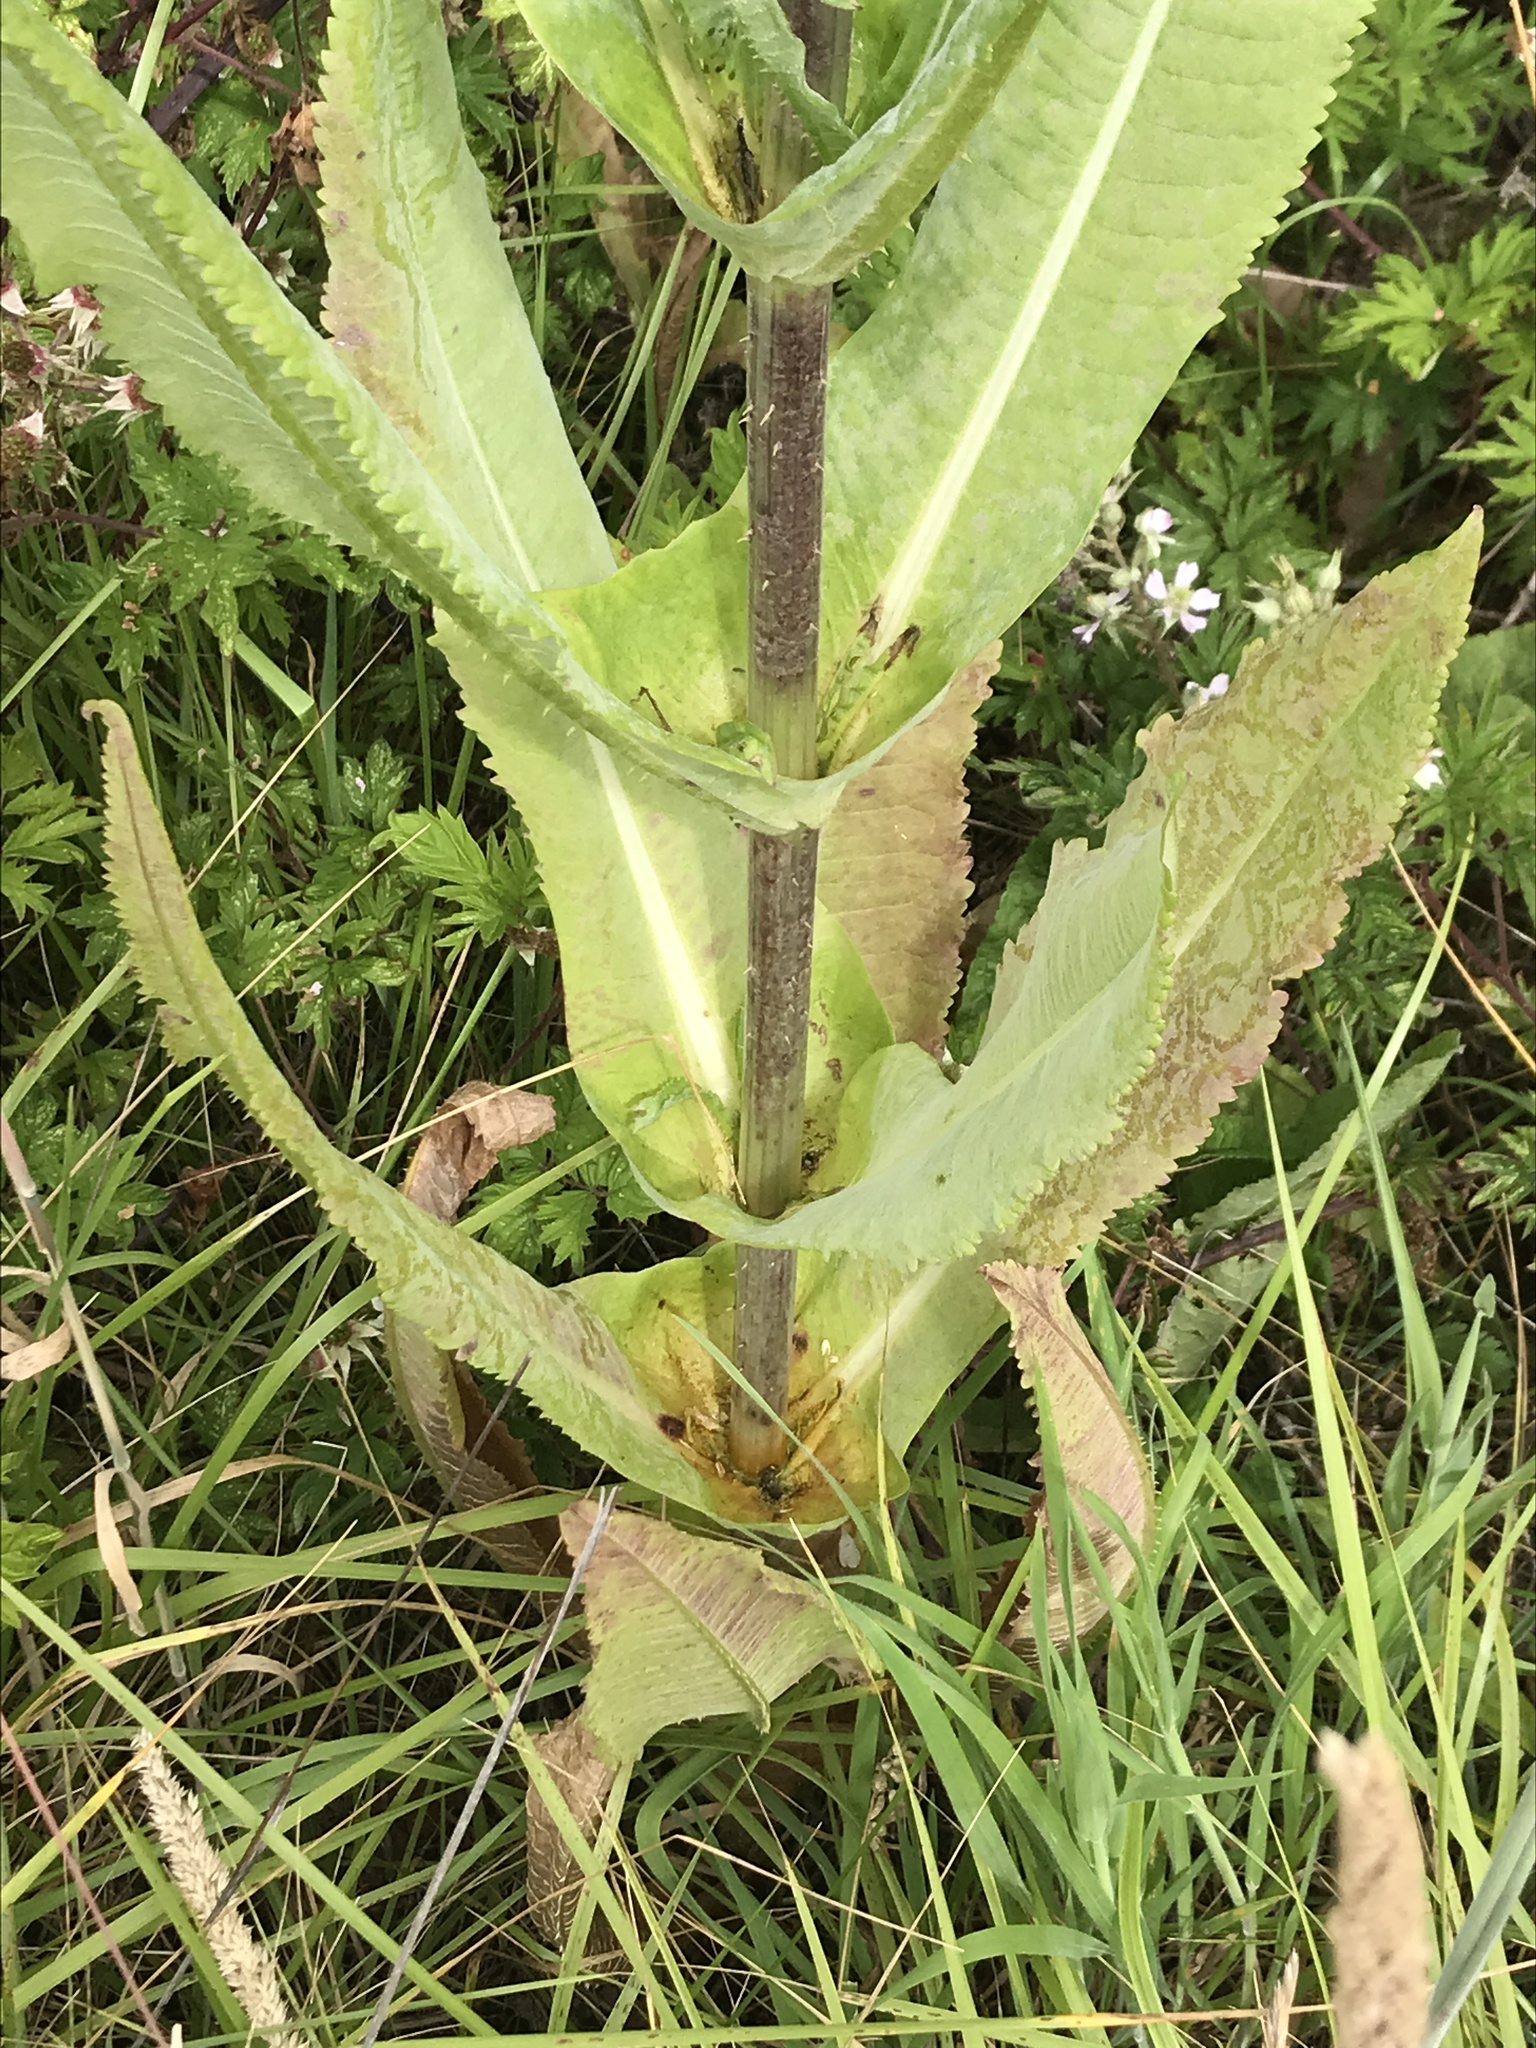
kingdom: Plantae
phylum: Tracheophyta
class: Magnoliopsida
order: Dipsacales
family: Caprifoliaceae
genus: Dipsacus
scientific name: Dipsacus fullonum
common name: Teasel
